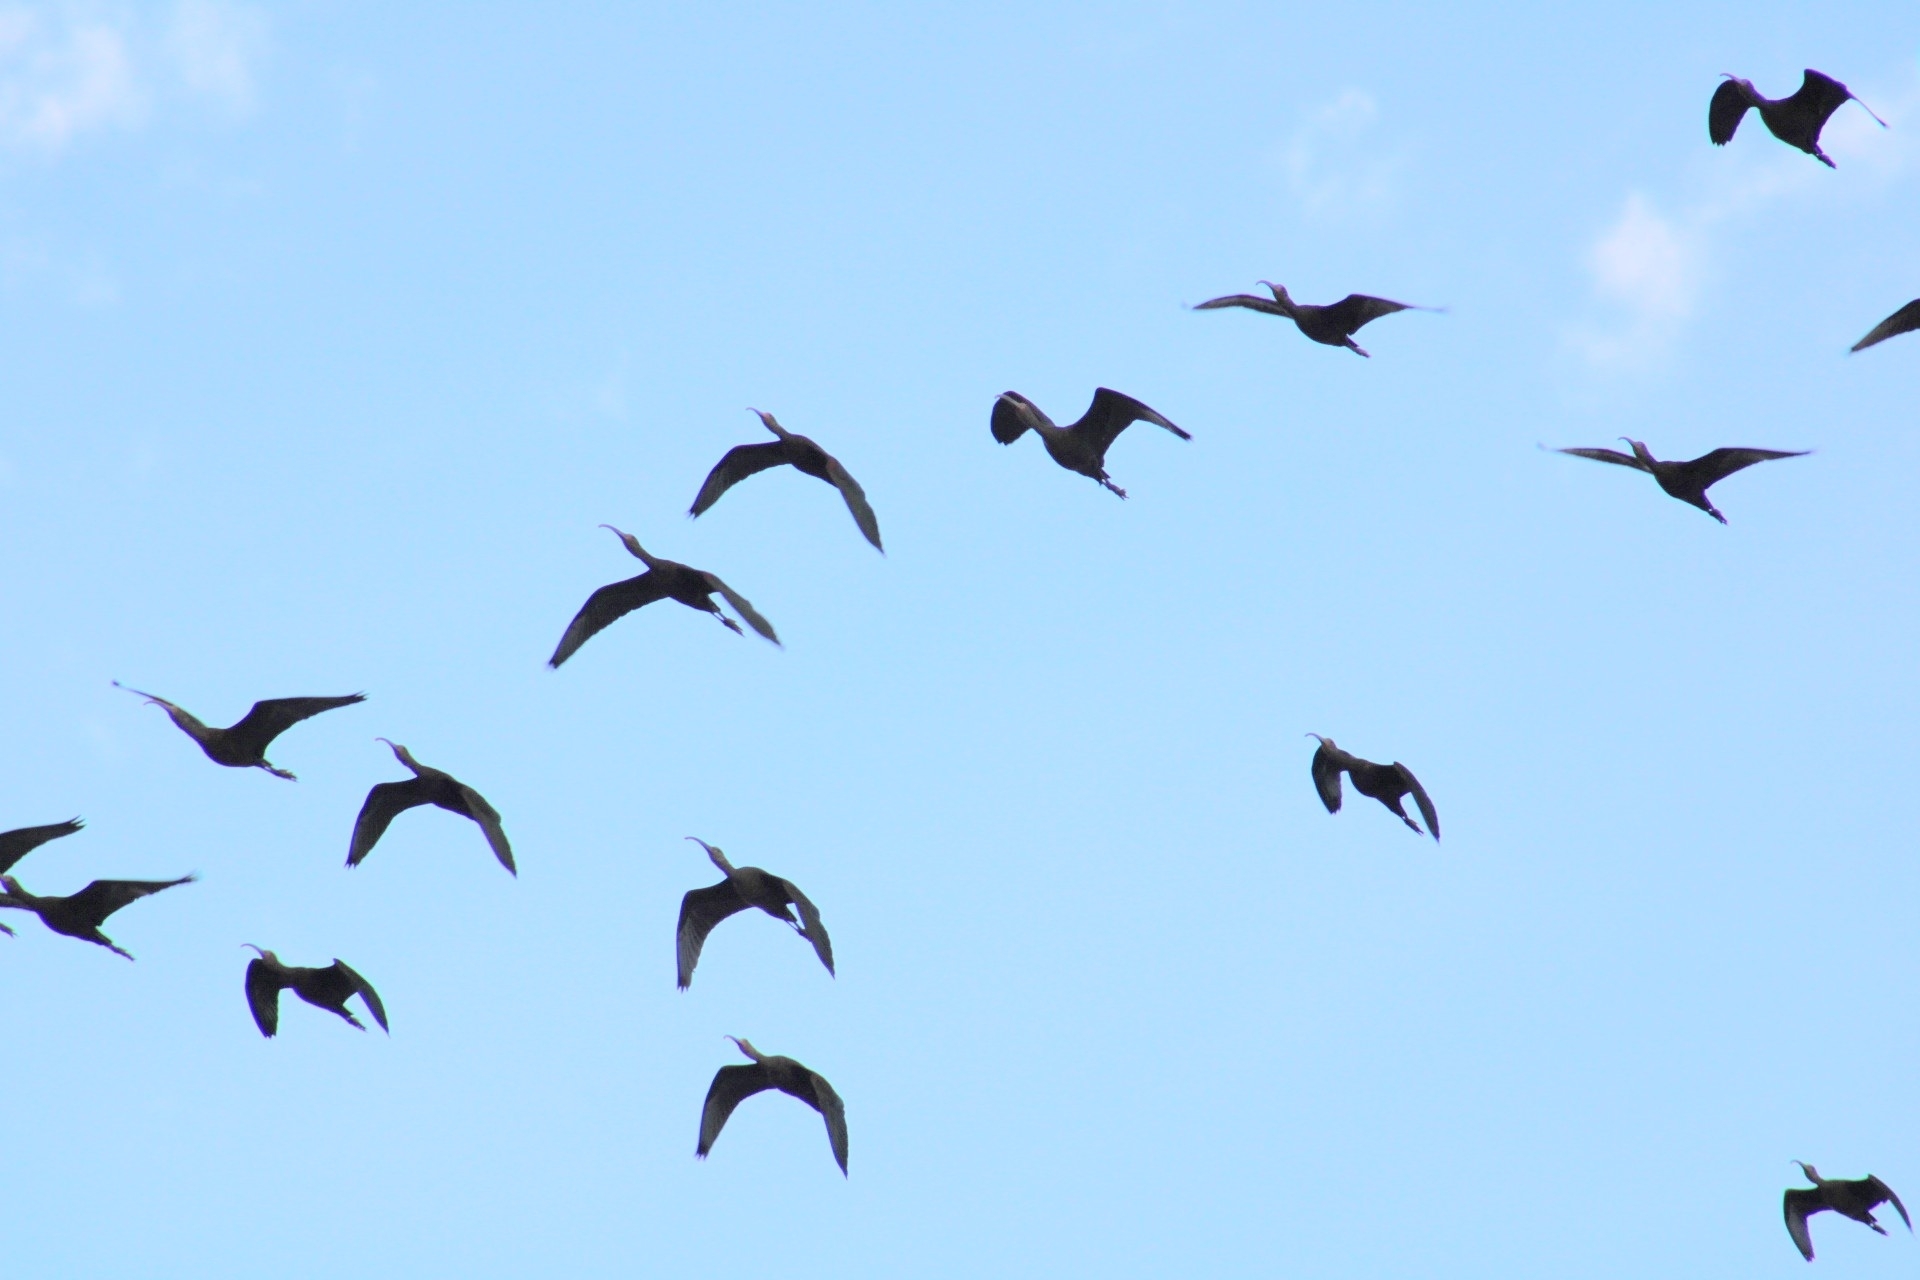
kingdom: Animalia
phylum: Chordata
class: Aves
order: Pelecaniformes
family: Threskiornithidae
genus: Plegadis
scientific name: Plegadis chihi
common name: White-faced ibis
